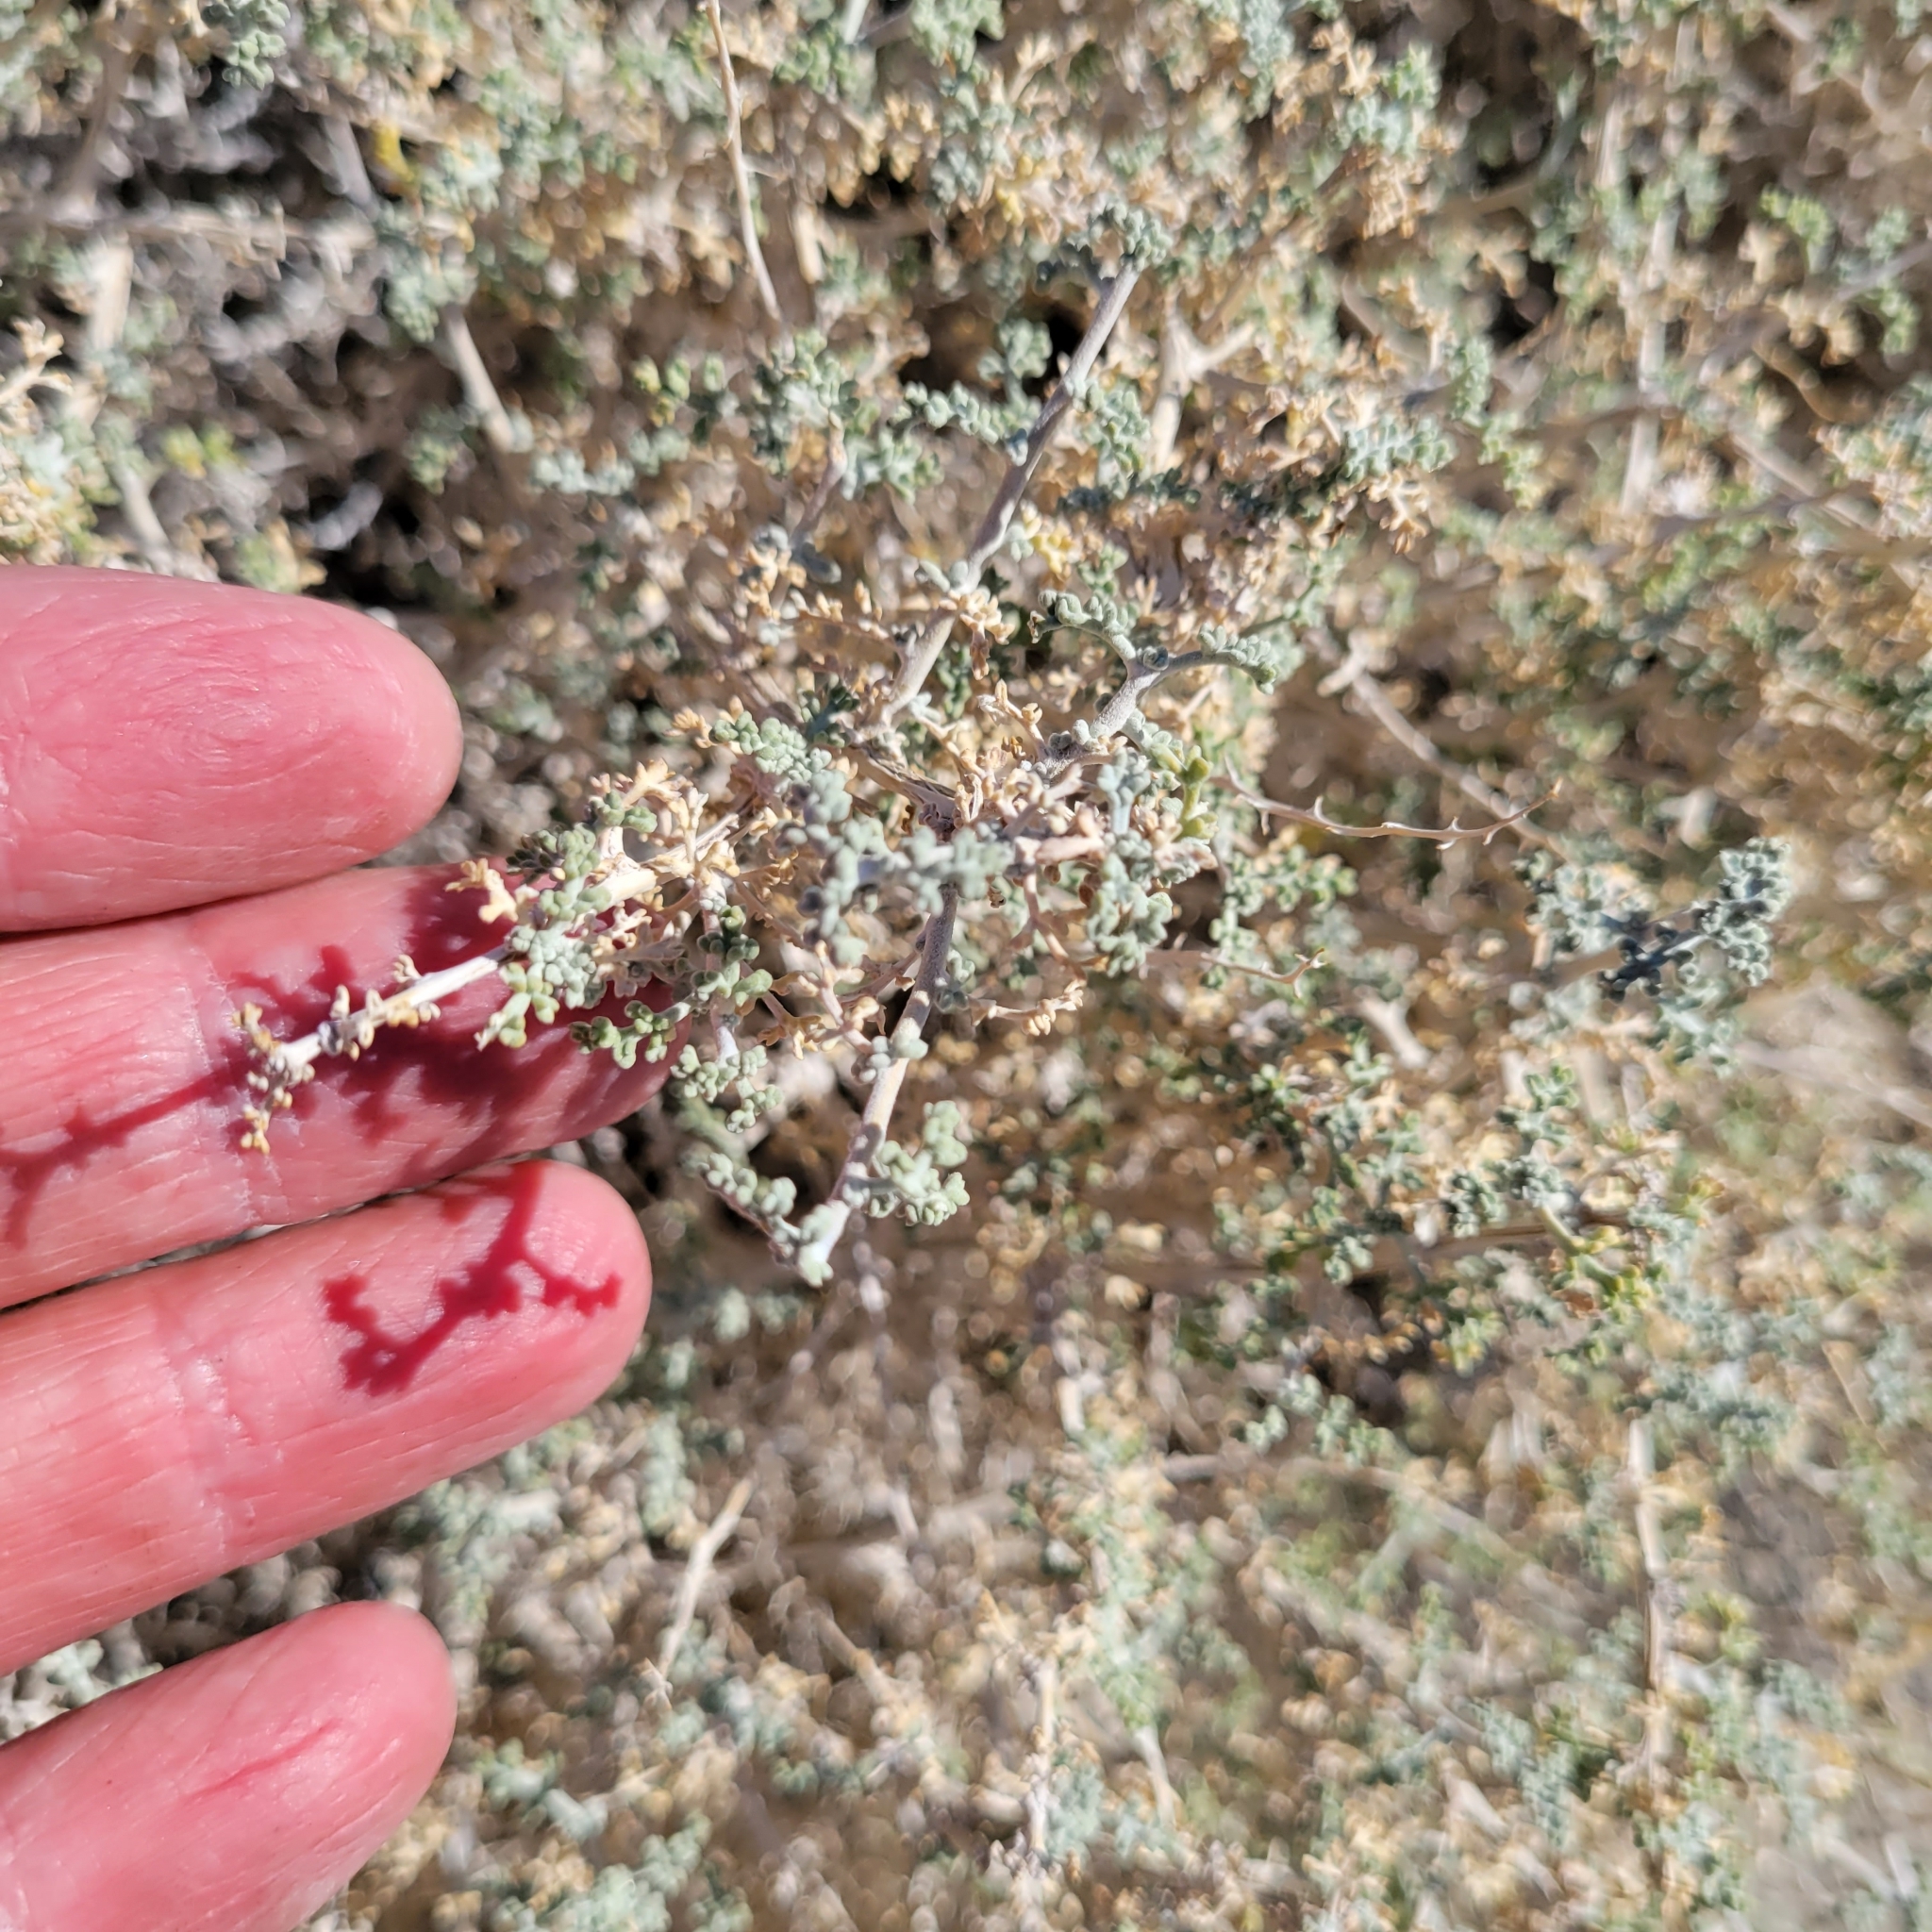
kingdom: Plantae
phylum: Tracheophyta
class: Magnoliopsida
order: Asterales
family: Asteraceae
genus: Ambrosia
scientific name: Ambrosia dumosa
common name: Bur-sage
